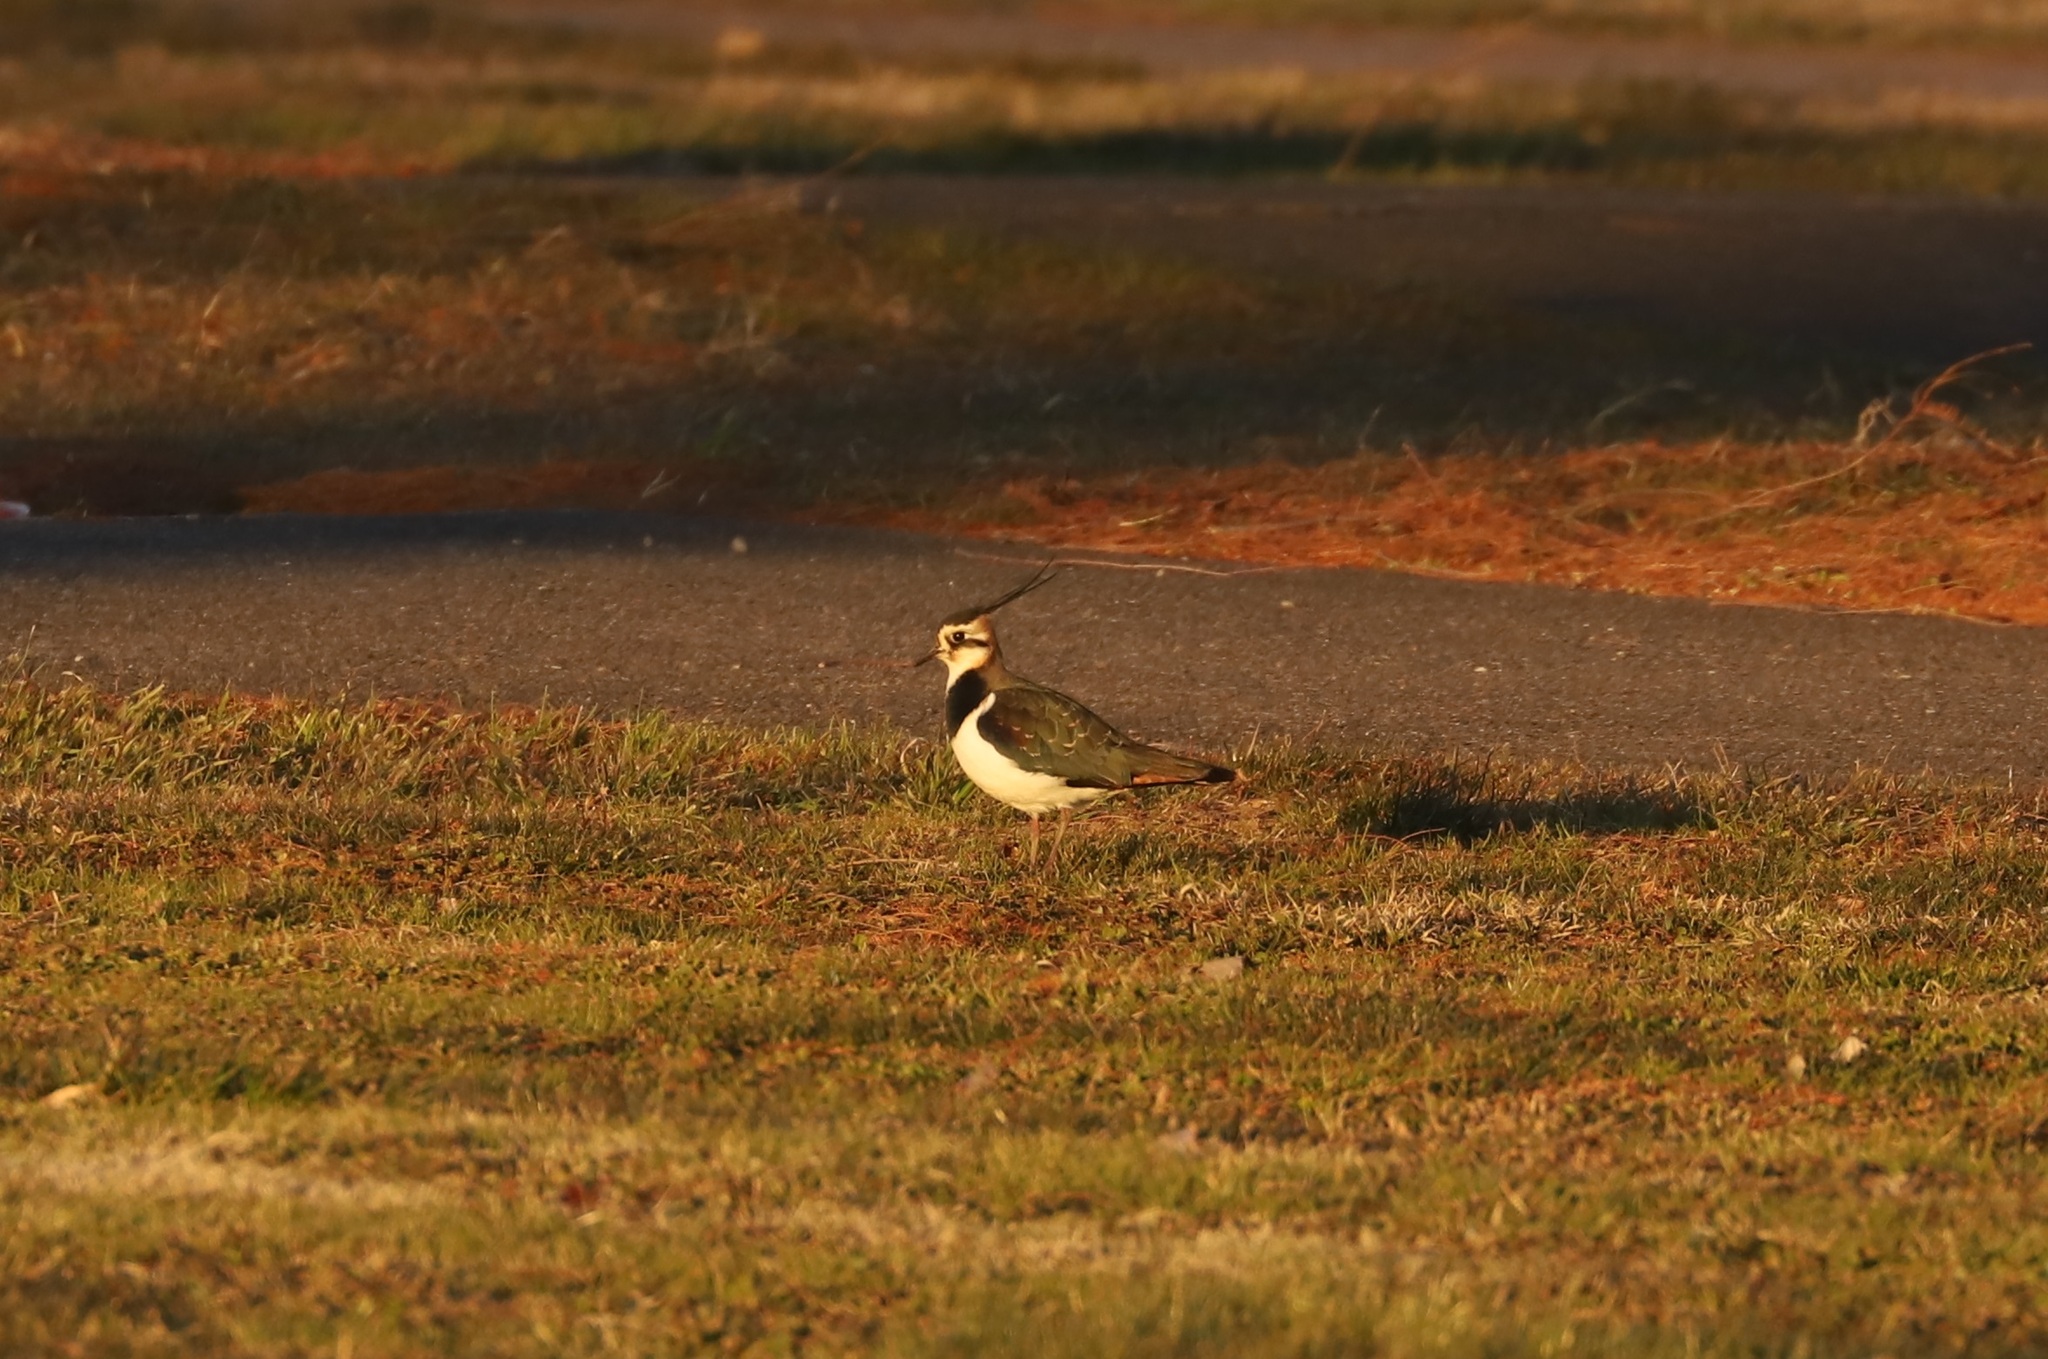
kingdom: Animalia
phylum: Chordata
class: Aves
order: Charadriiformes
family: Charadriidae
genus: Vanellus
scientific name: Vanellus vanellus
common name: Northern lapwing
